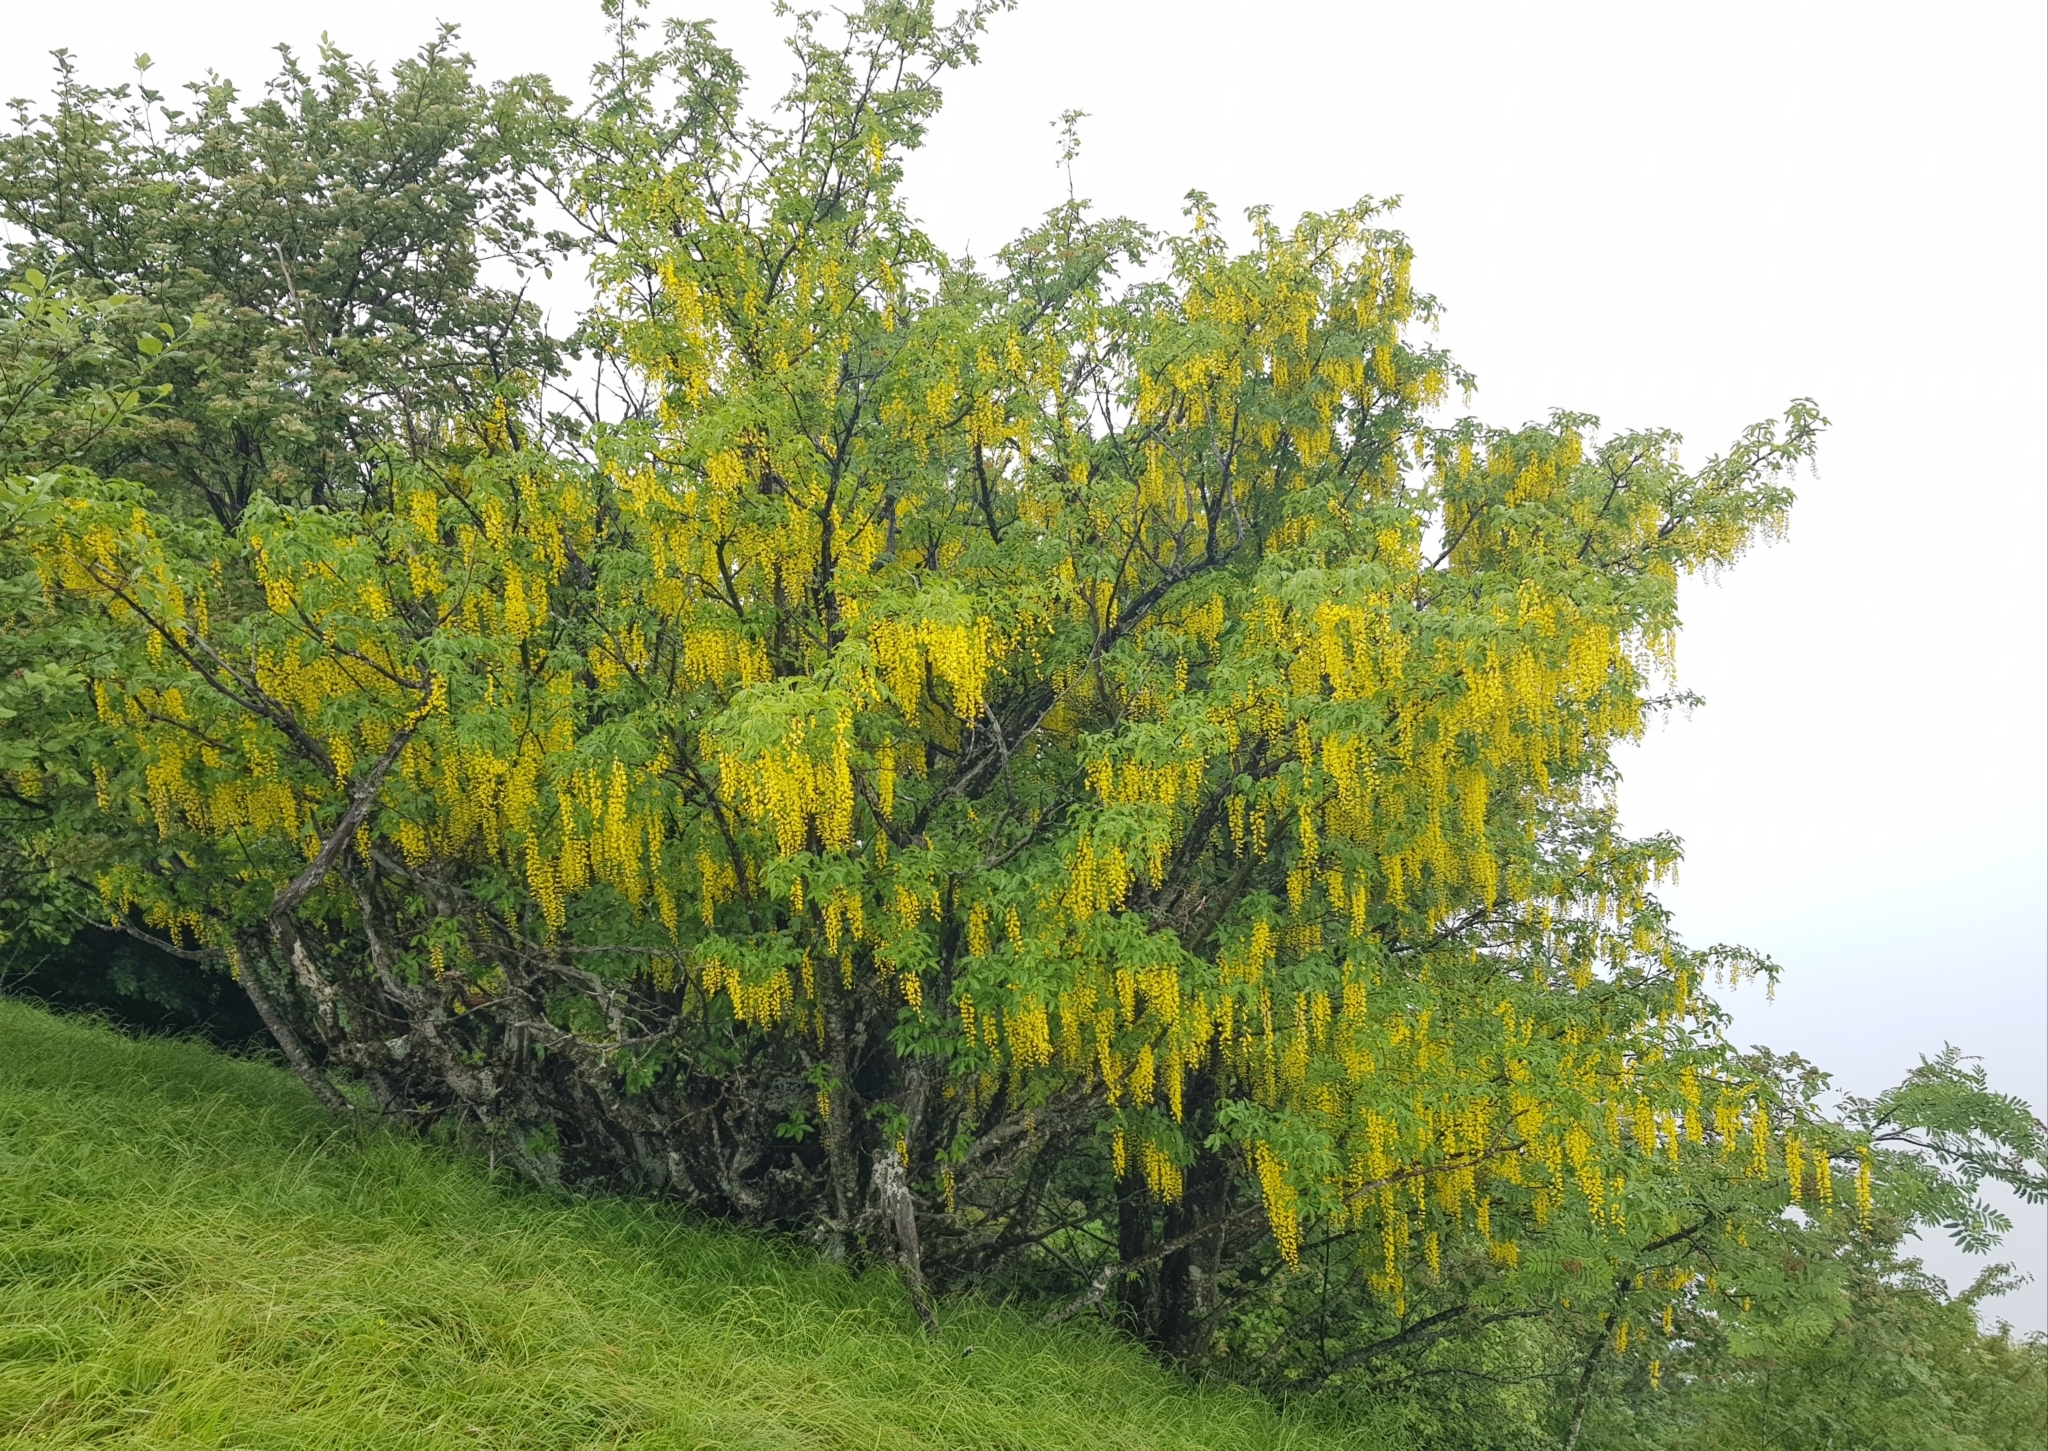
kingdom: Plantae
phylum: Tracheophyta
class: Magnoliopsida
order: Fabales
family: Fabaceae
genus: Laburnum
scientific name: Laburnum anagyroides
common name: Laburnum
